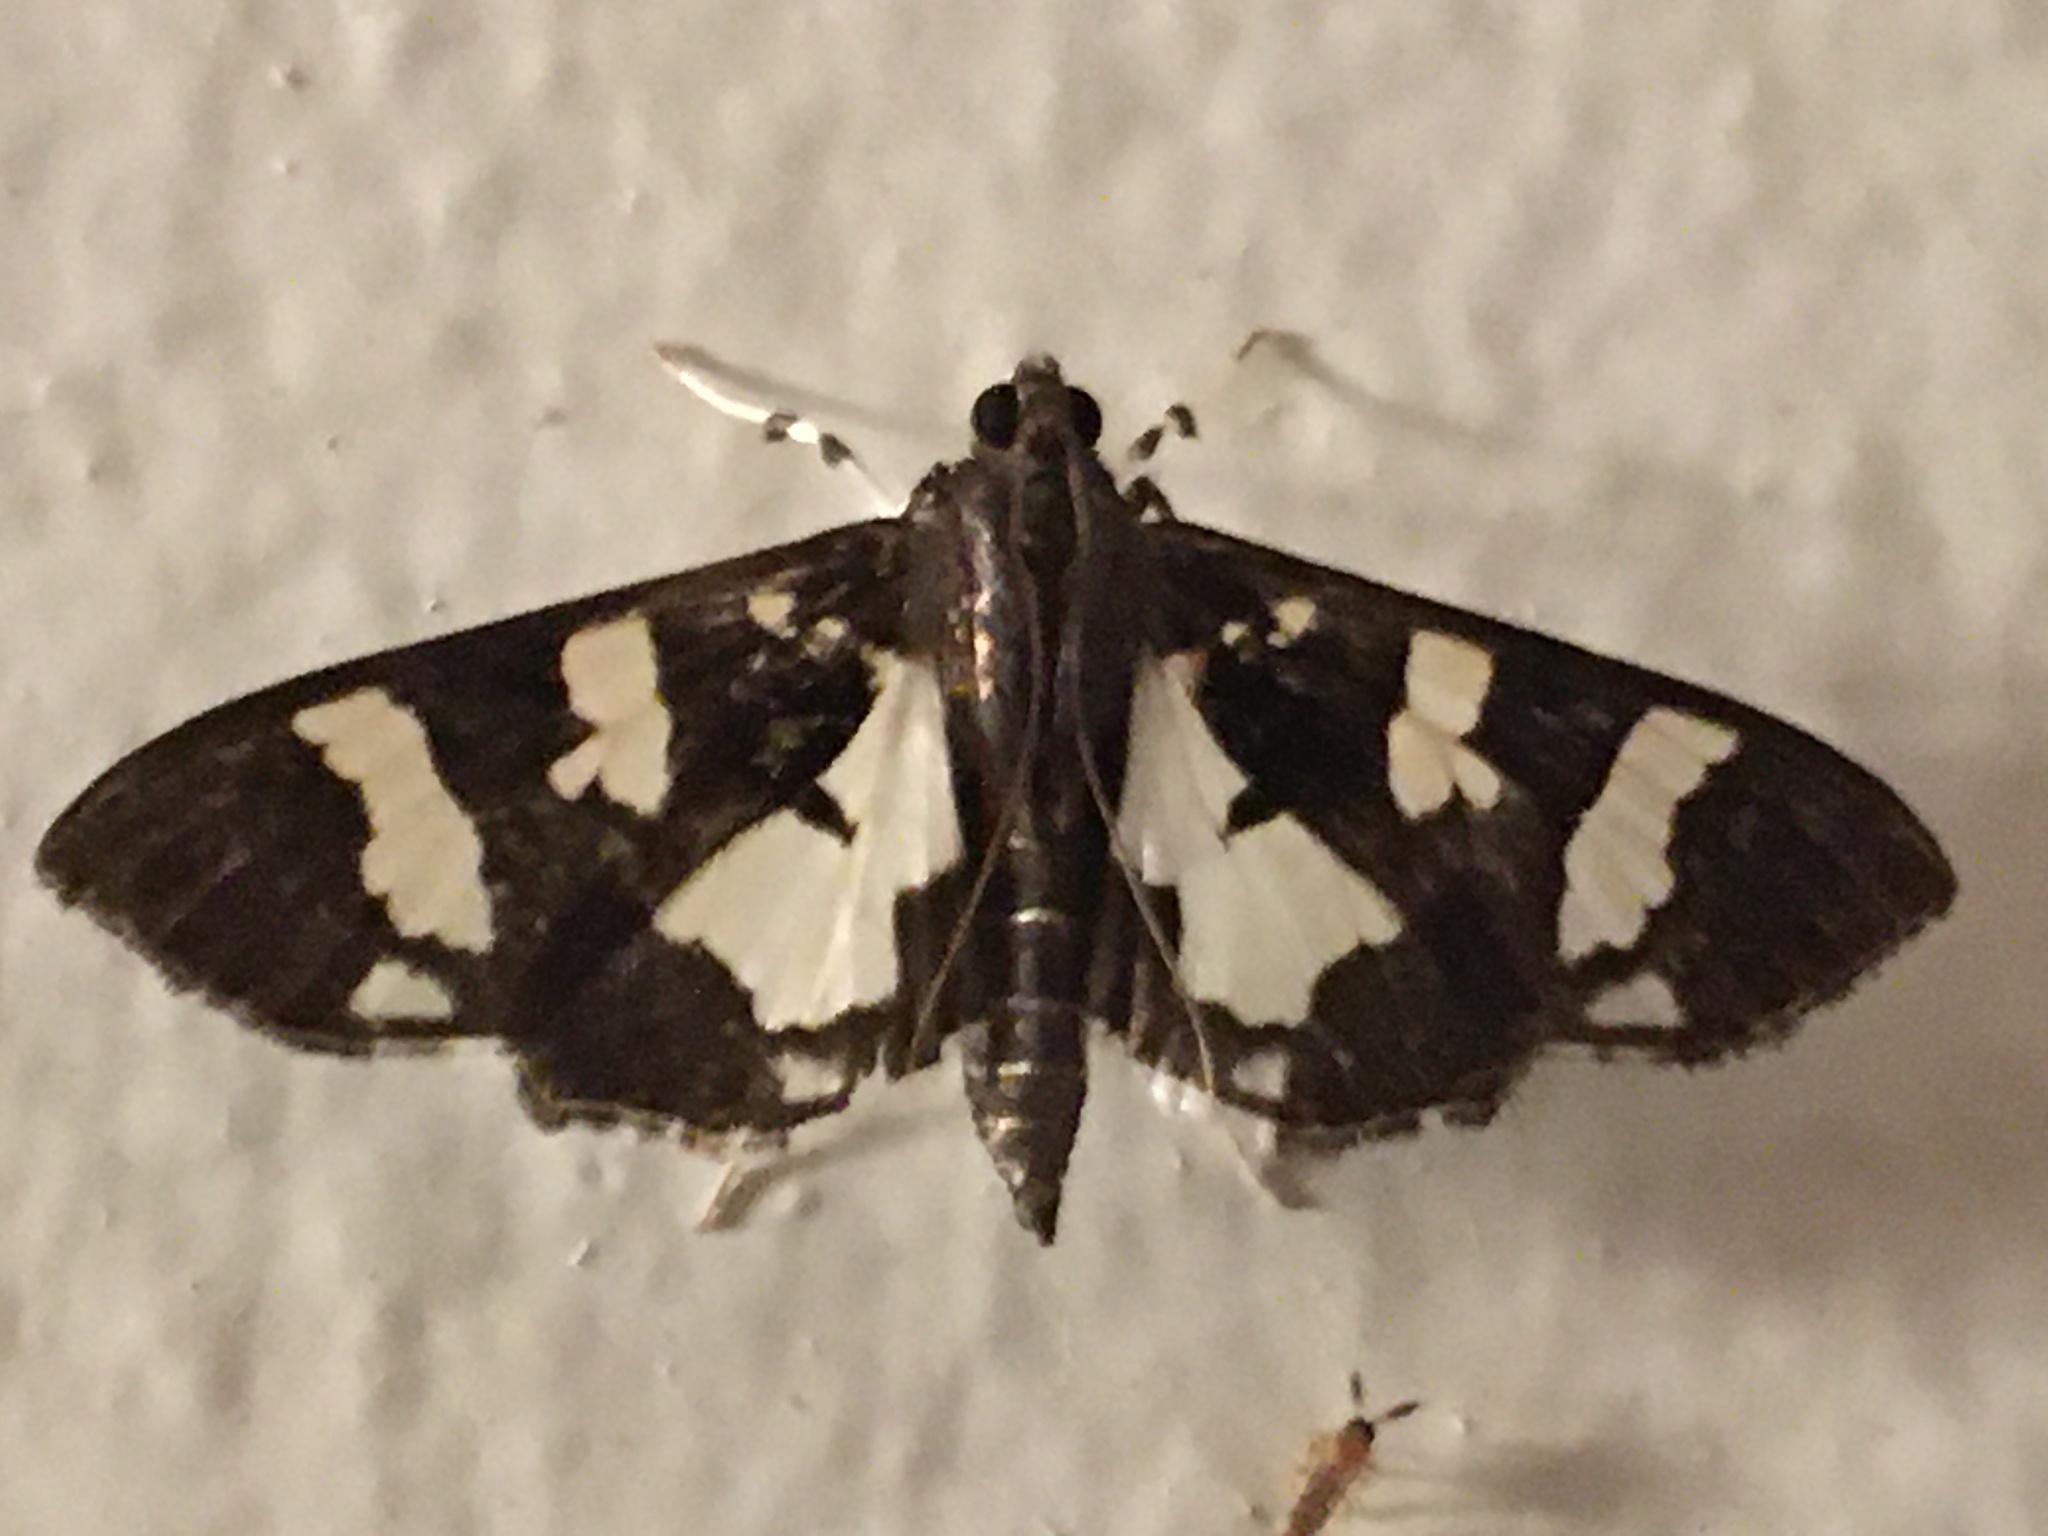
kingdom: Animalia
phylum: Arthropoda
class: Insecta
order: Lepidoptera
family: Crambidae
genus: Desmia
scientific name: Desmia bajulalis
